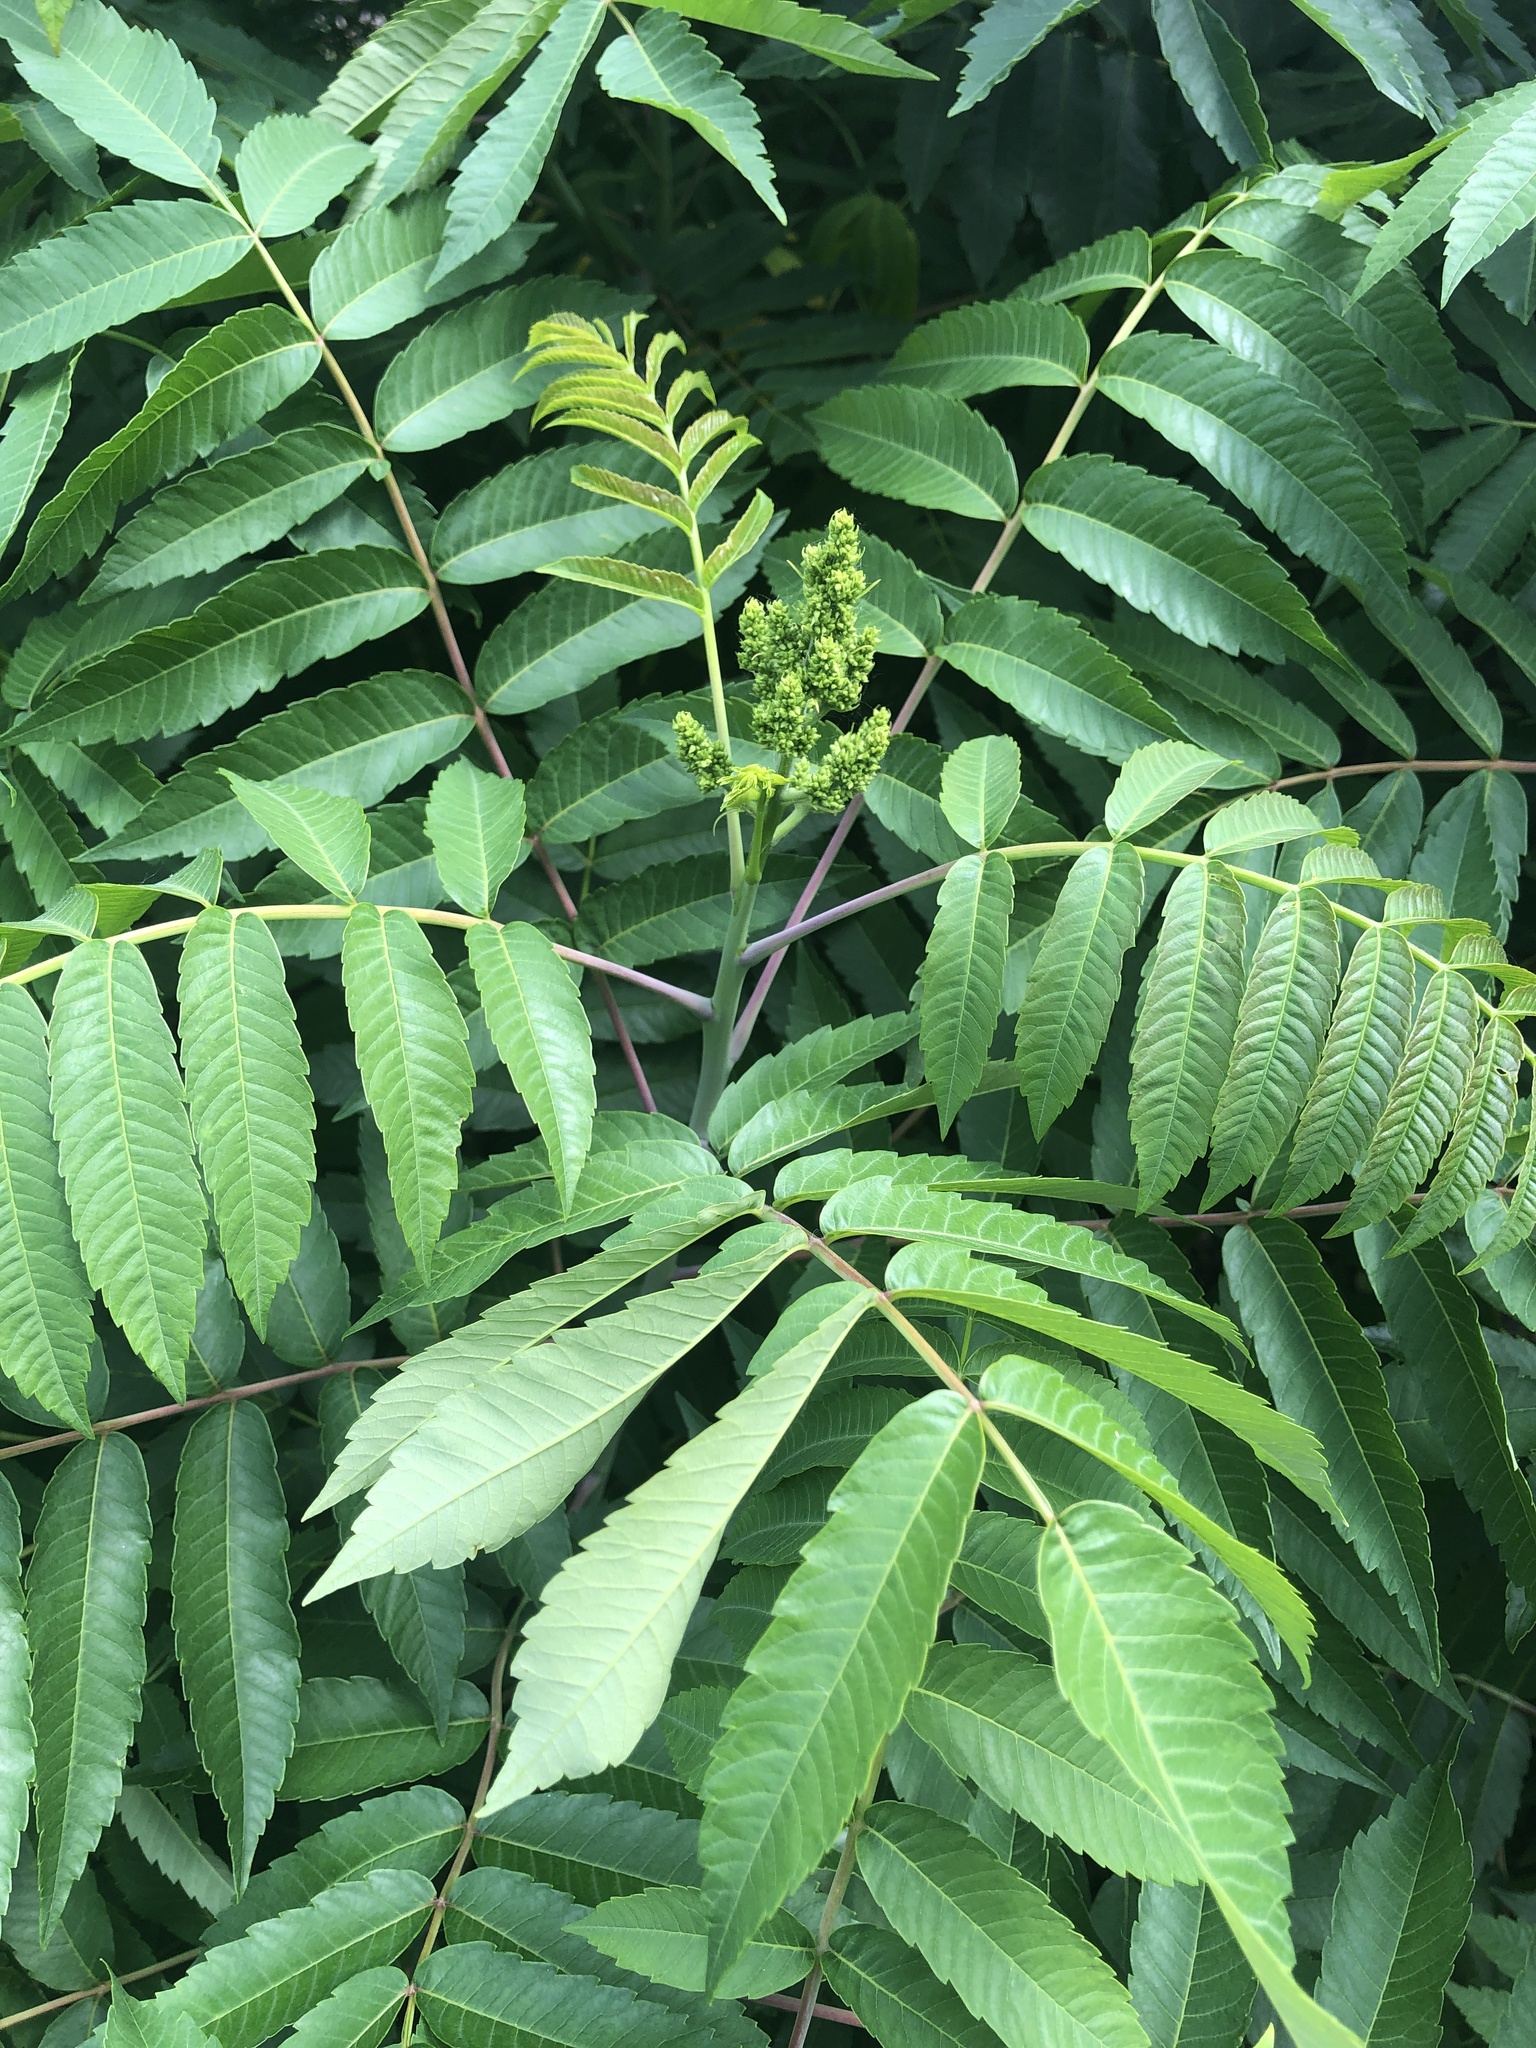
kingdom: Plantae
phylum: Tracheophyta
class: Magnoliopsida
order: Sapindales
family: Anacardiaceae
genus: Rhus
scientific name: Rhus glabra
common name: Scarlet sumac
